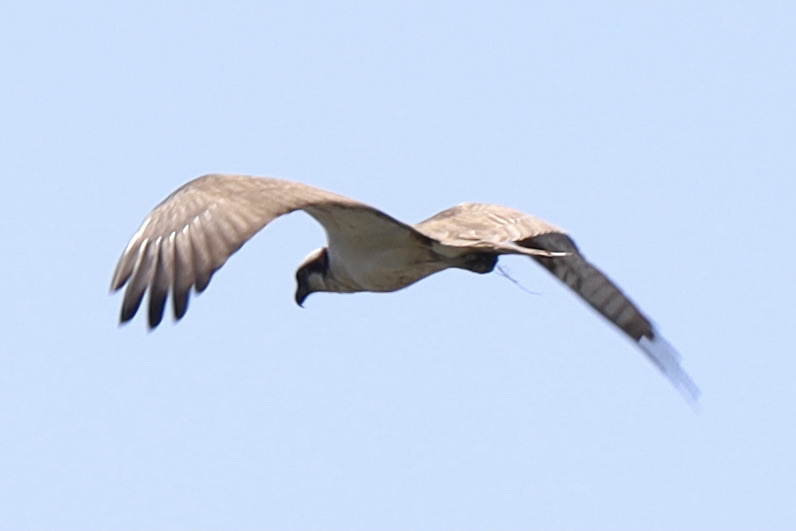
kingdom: Animalia
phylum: Chordata
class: Aves
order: Accipitriformes
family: Pandionidae
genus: Pandion
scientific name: Pandion haliaetus
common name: Osprey
